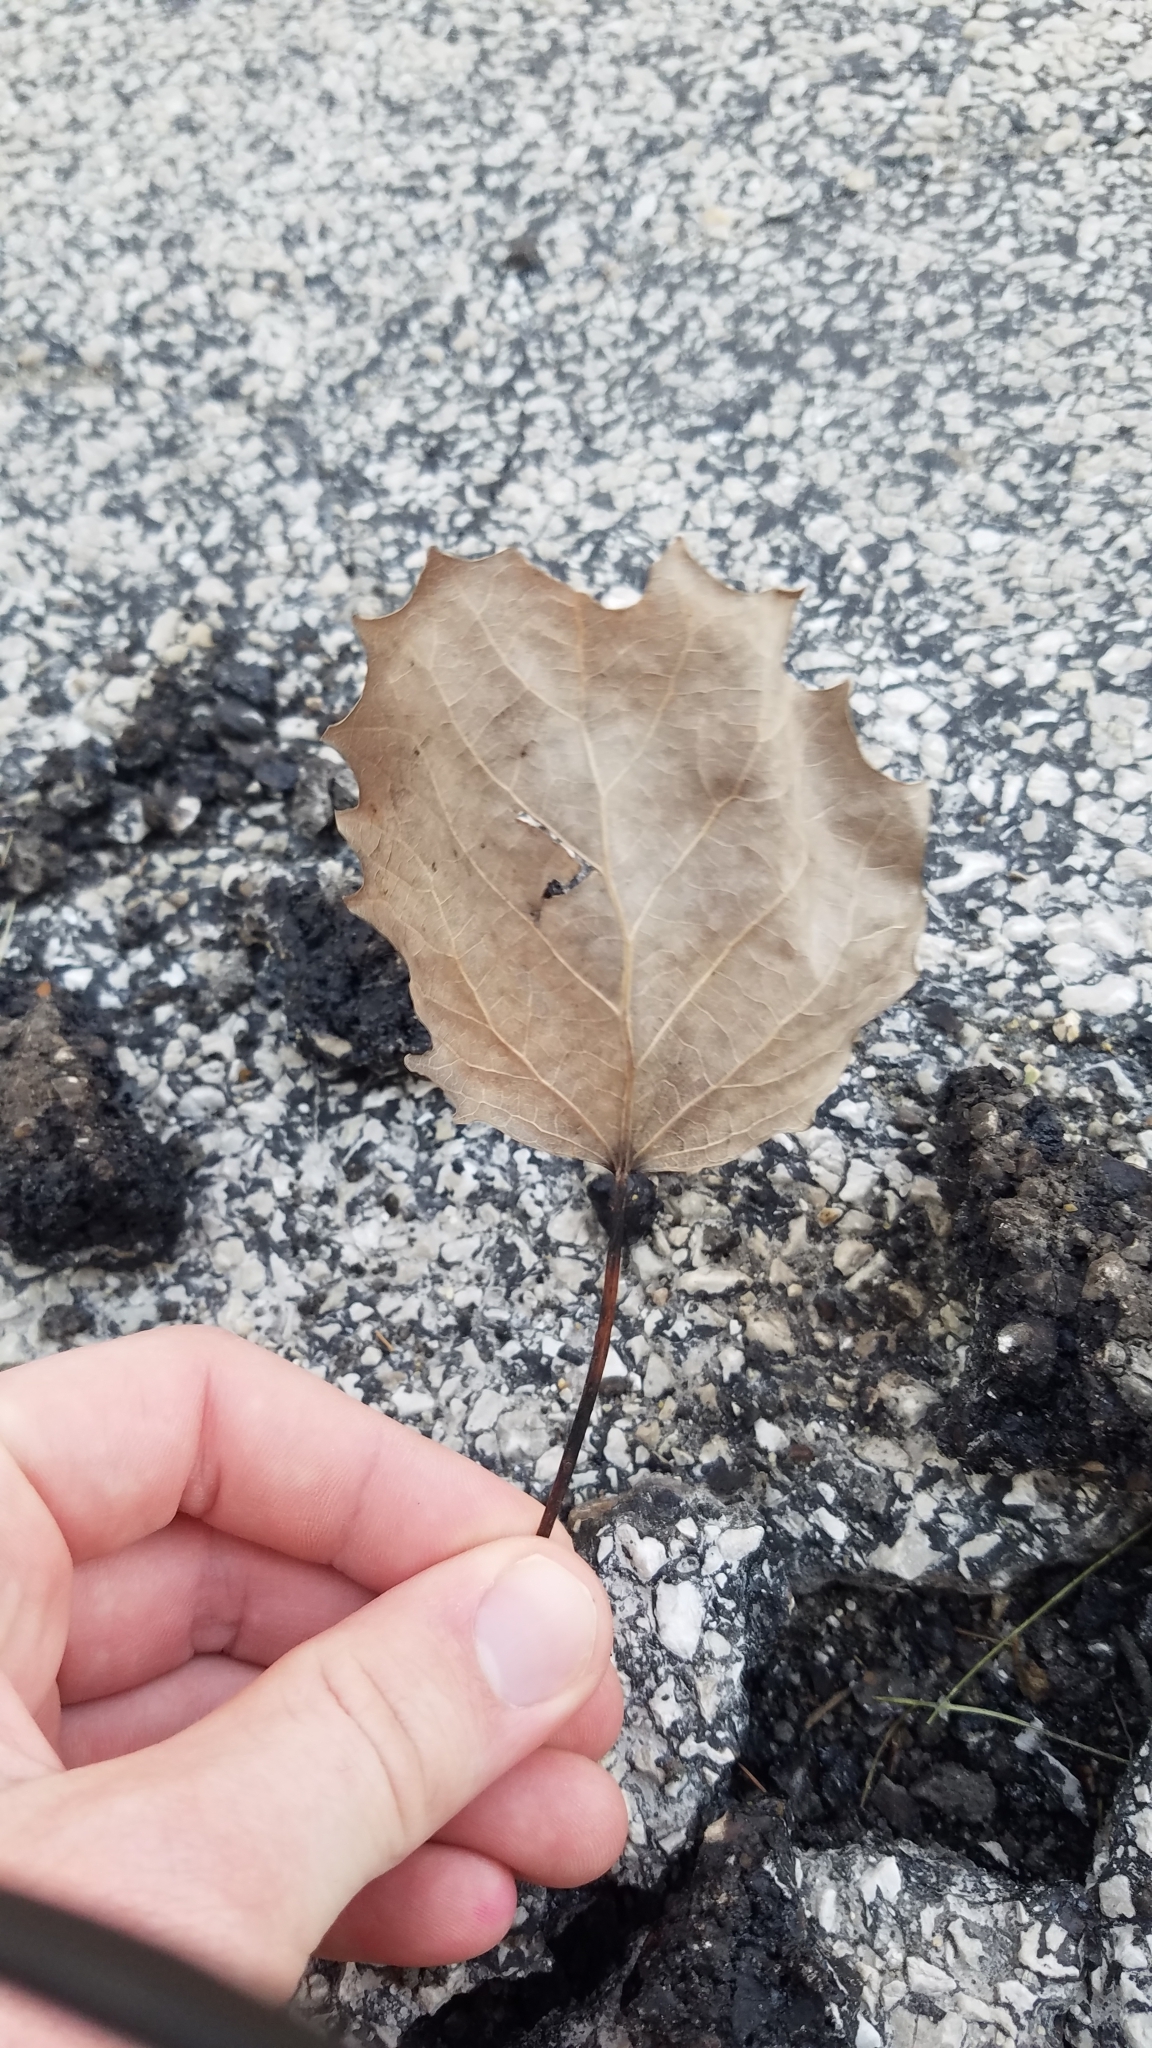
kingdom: Plantae
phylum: Tracheophyta
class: Magnoliopsida
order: Malpighiales
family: Salicaceae
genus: Populus
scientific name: Populus grandidentata
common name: Bigtooth aspen
